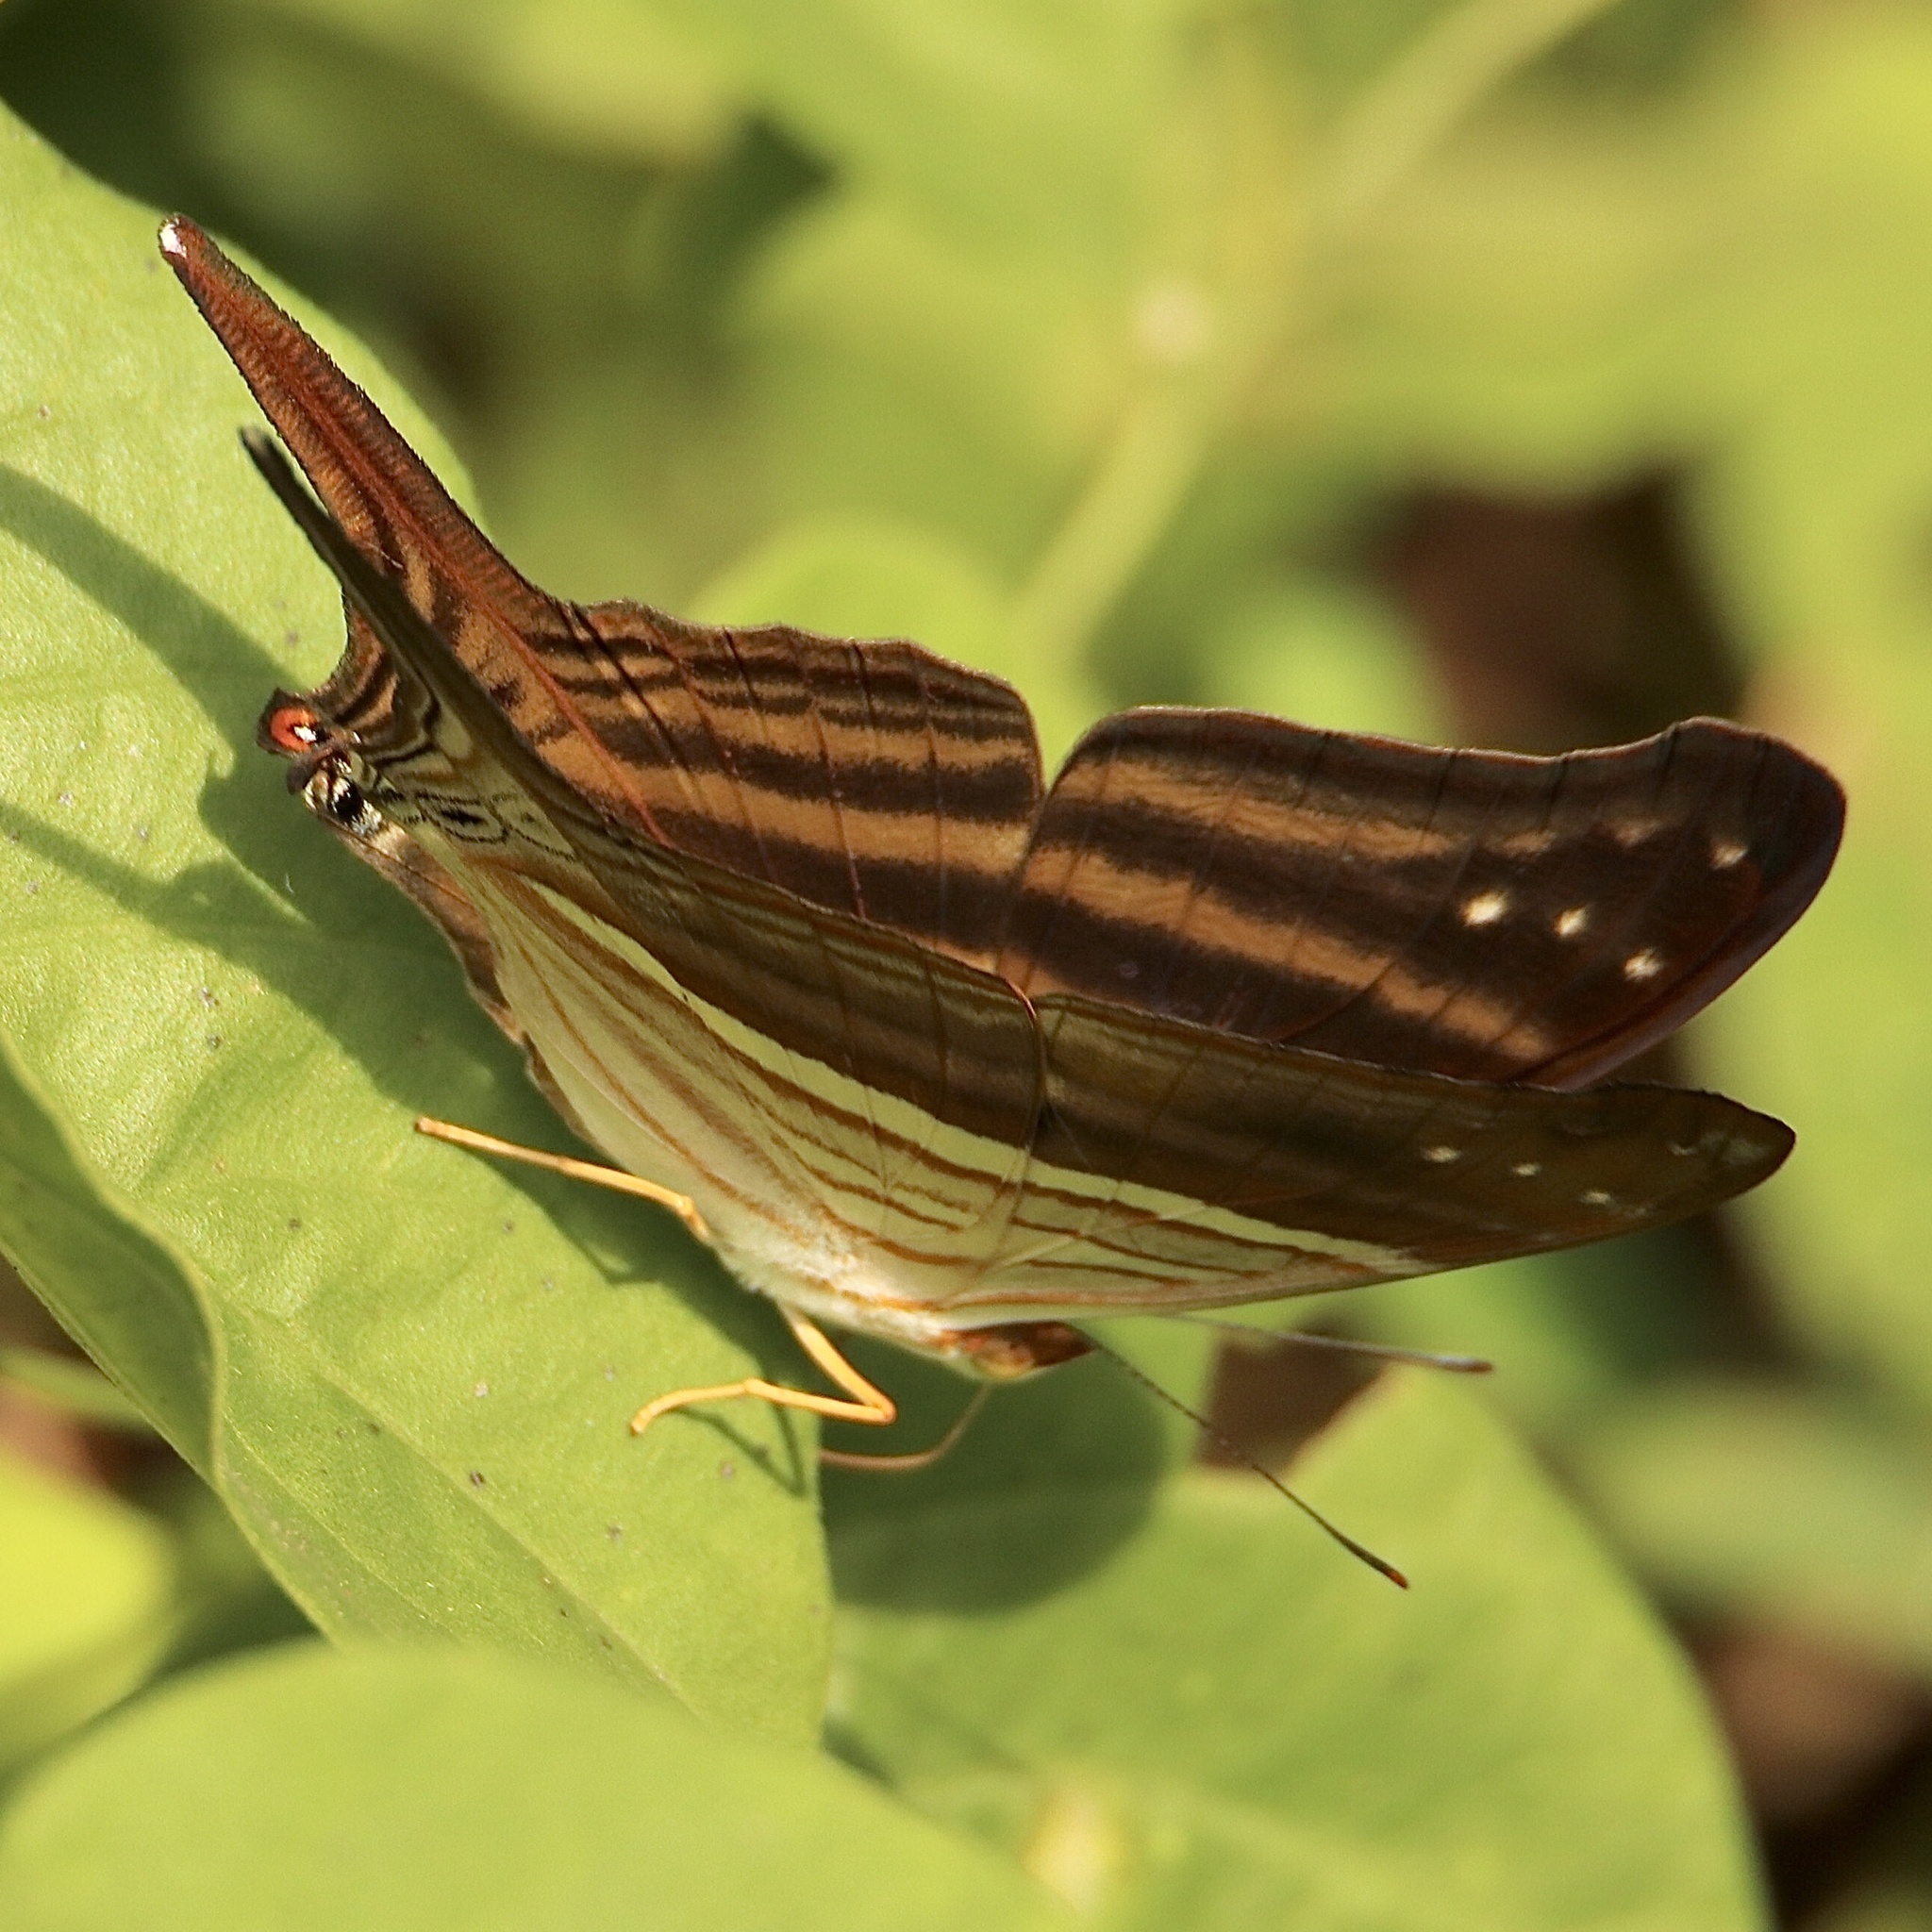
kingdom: Animalia
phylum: Arthropoda
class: Insecta
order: Lepidoptera
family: Nymphalidae
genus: Marpesia
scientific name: Marpesia chiron
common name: Many-banded daggerwing
